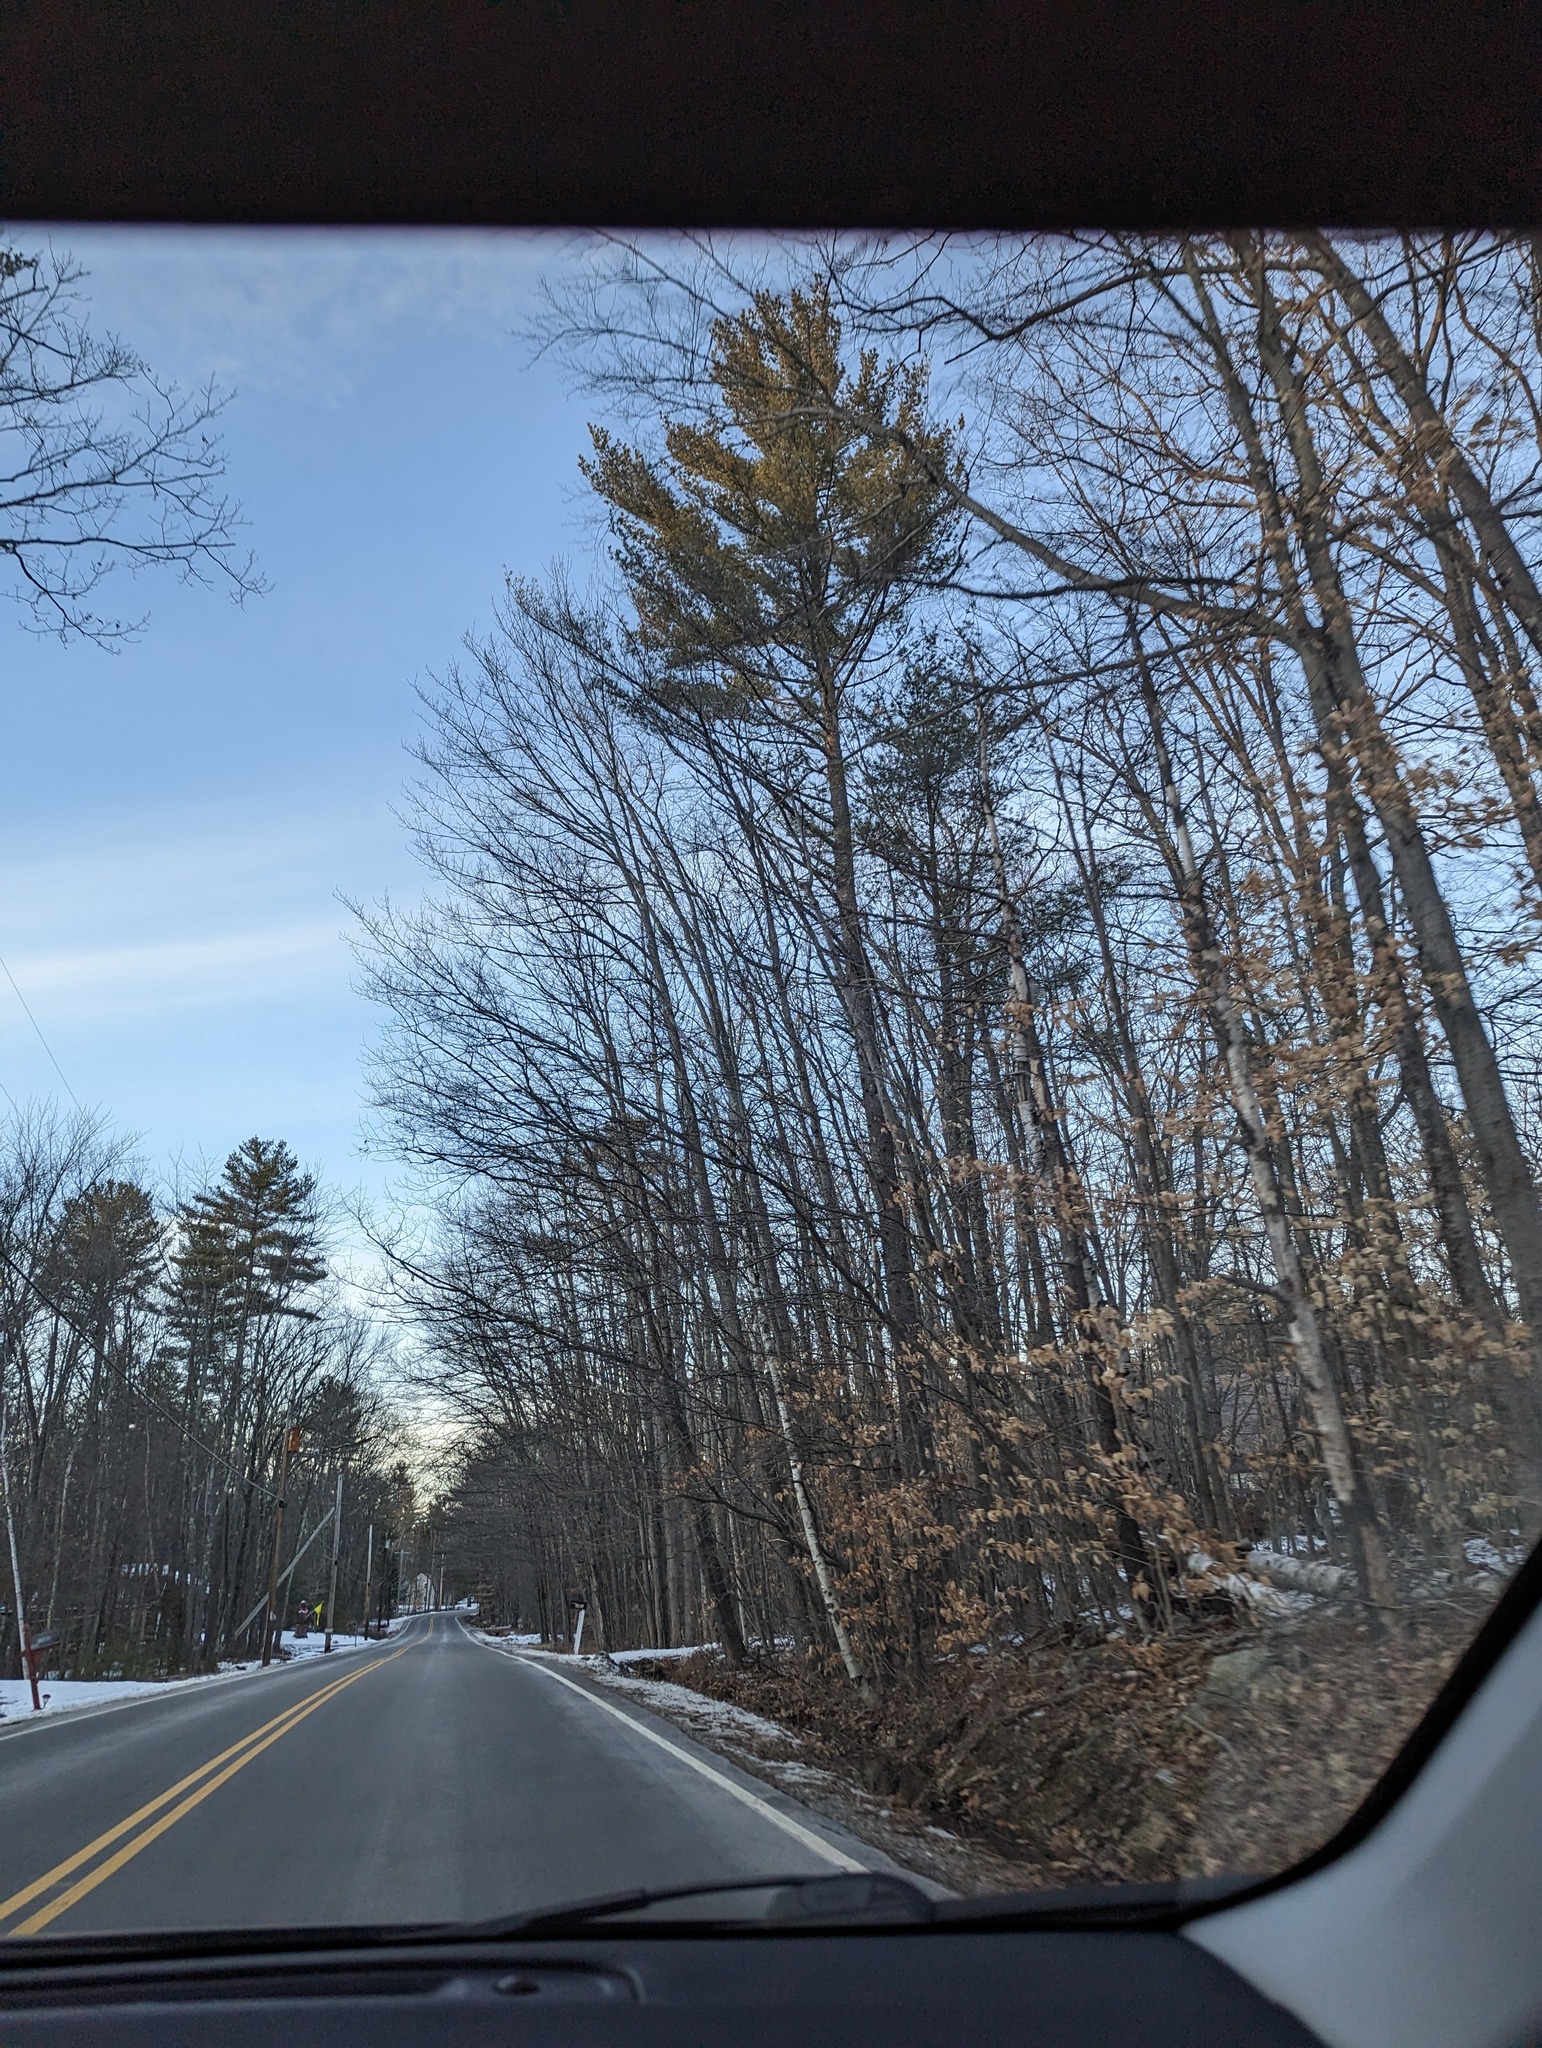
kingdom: Plantae
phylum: Tracheophyta
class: Pinopsida
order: Pinales
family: Pinaceae
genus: Pinus
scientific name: Pinus strobus
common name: Weymouth pine
